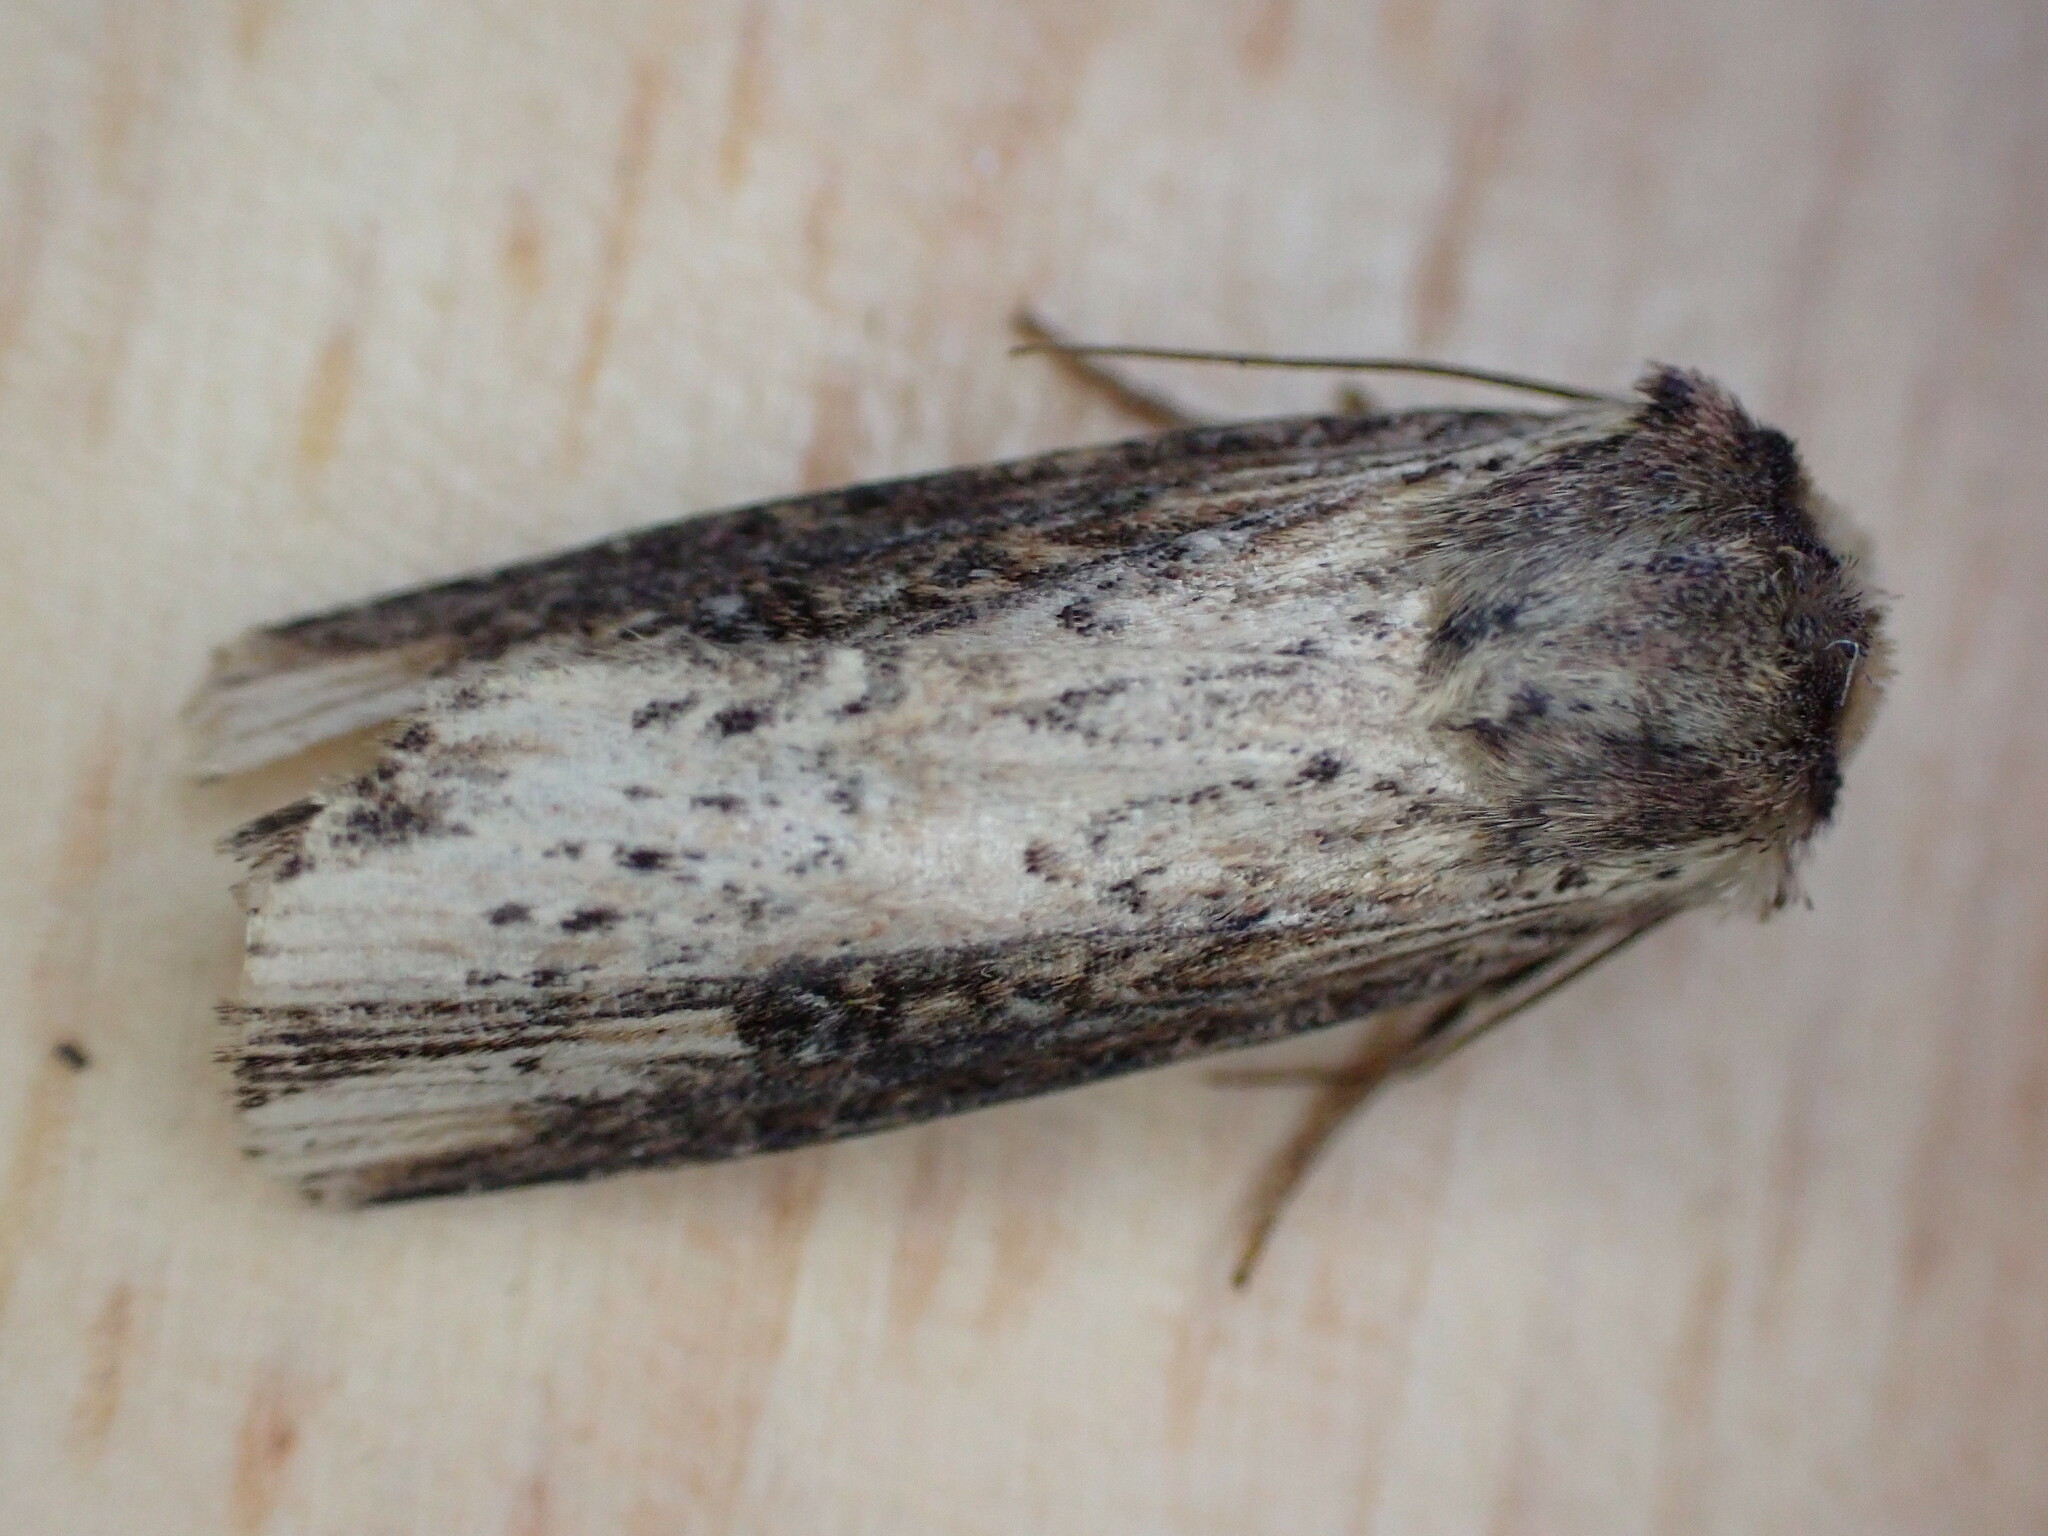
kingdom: Animalia
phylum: Arthropoda
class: Insecta
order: Lepidoptera
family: Noctuidae
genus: Axylia
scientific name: Axylia putris
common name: Flame
